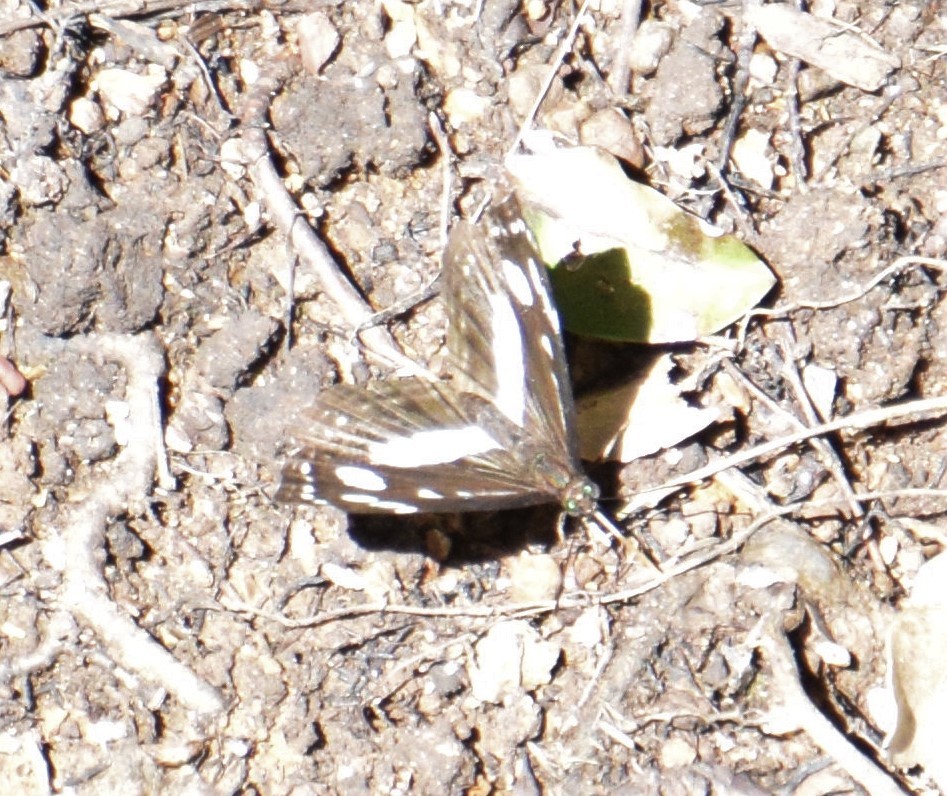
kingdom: Animalia
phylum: Arthropoda
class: Insecta
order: Lepidoptera
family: Nymphalidae
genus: Phaedyma
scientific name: Phaedyma shepherdi
